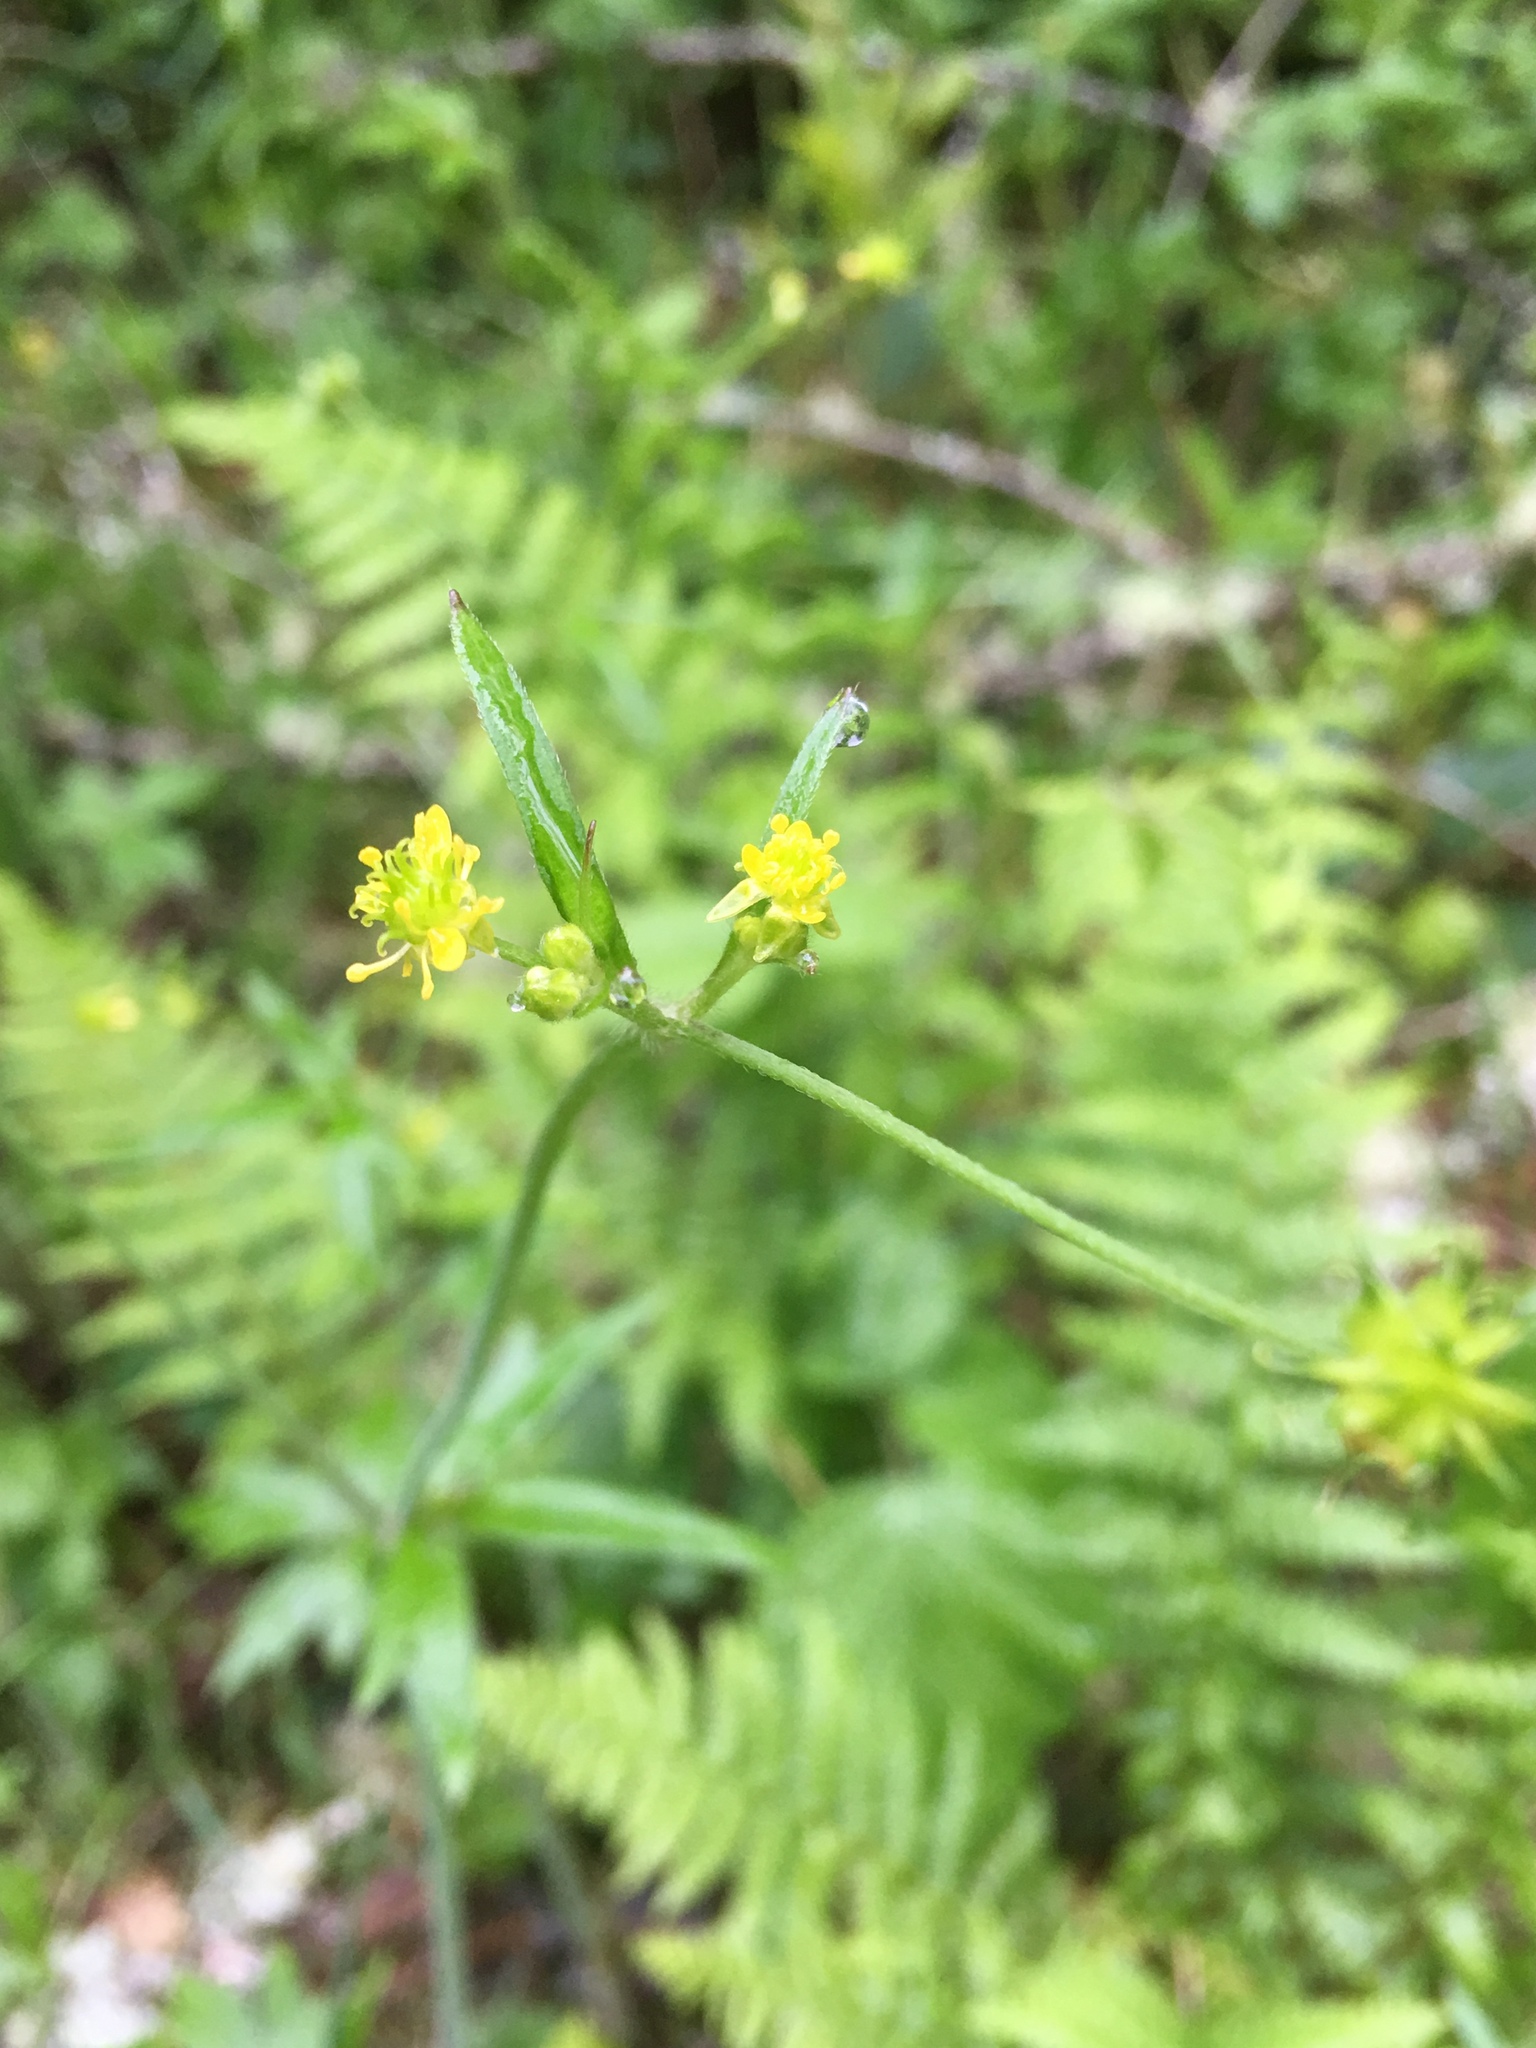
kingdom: Plantae
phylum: Tracheophyta
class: Magnoliopsida
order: Ranunculales
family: Ranunculaceae
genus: Ranunculus
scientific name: Ranunculus uncinatus
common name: Little buttercup
